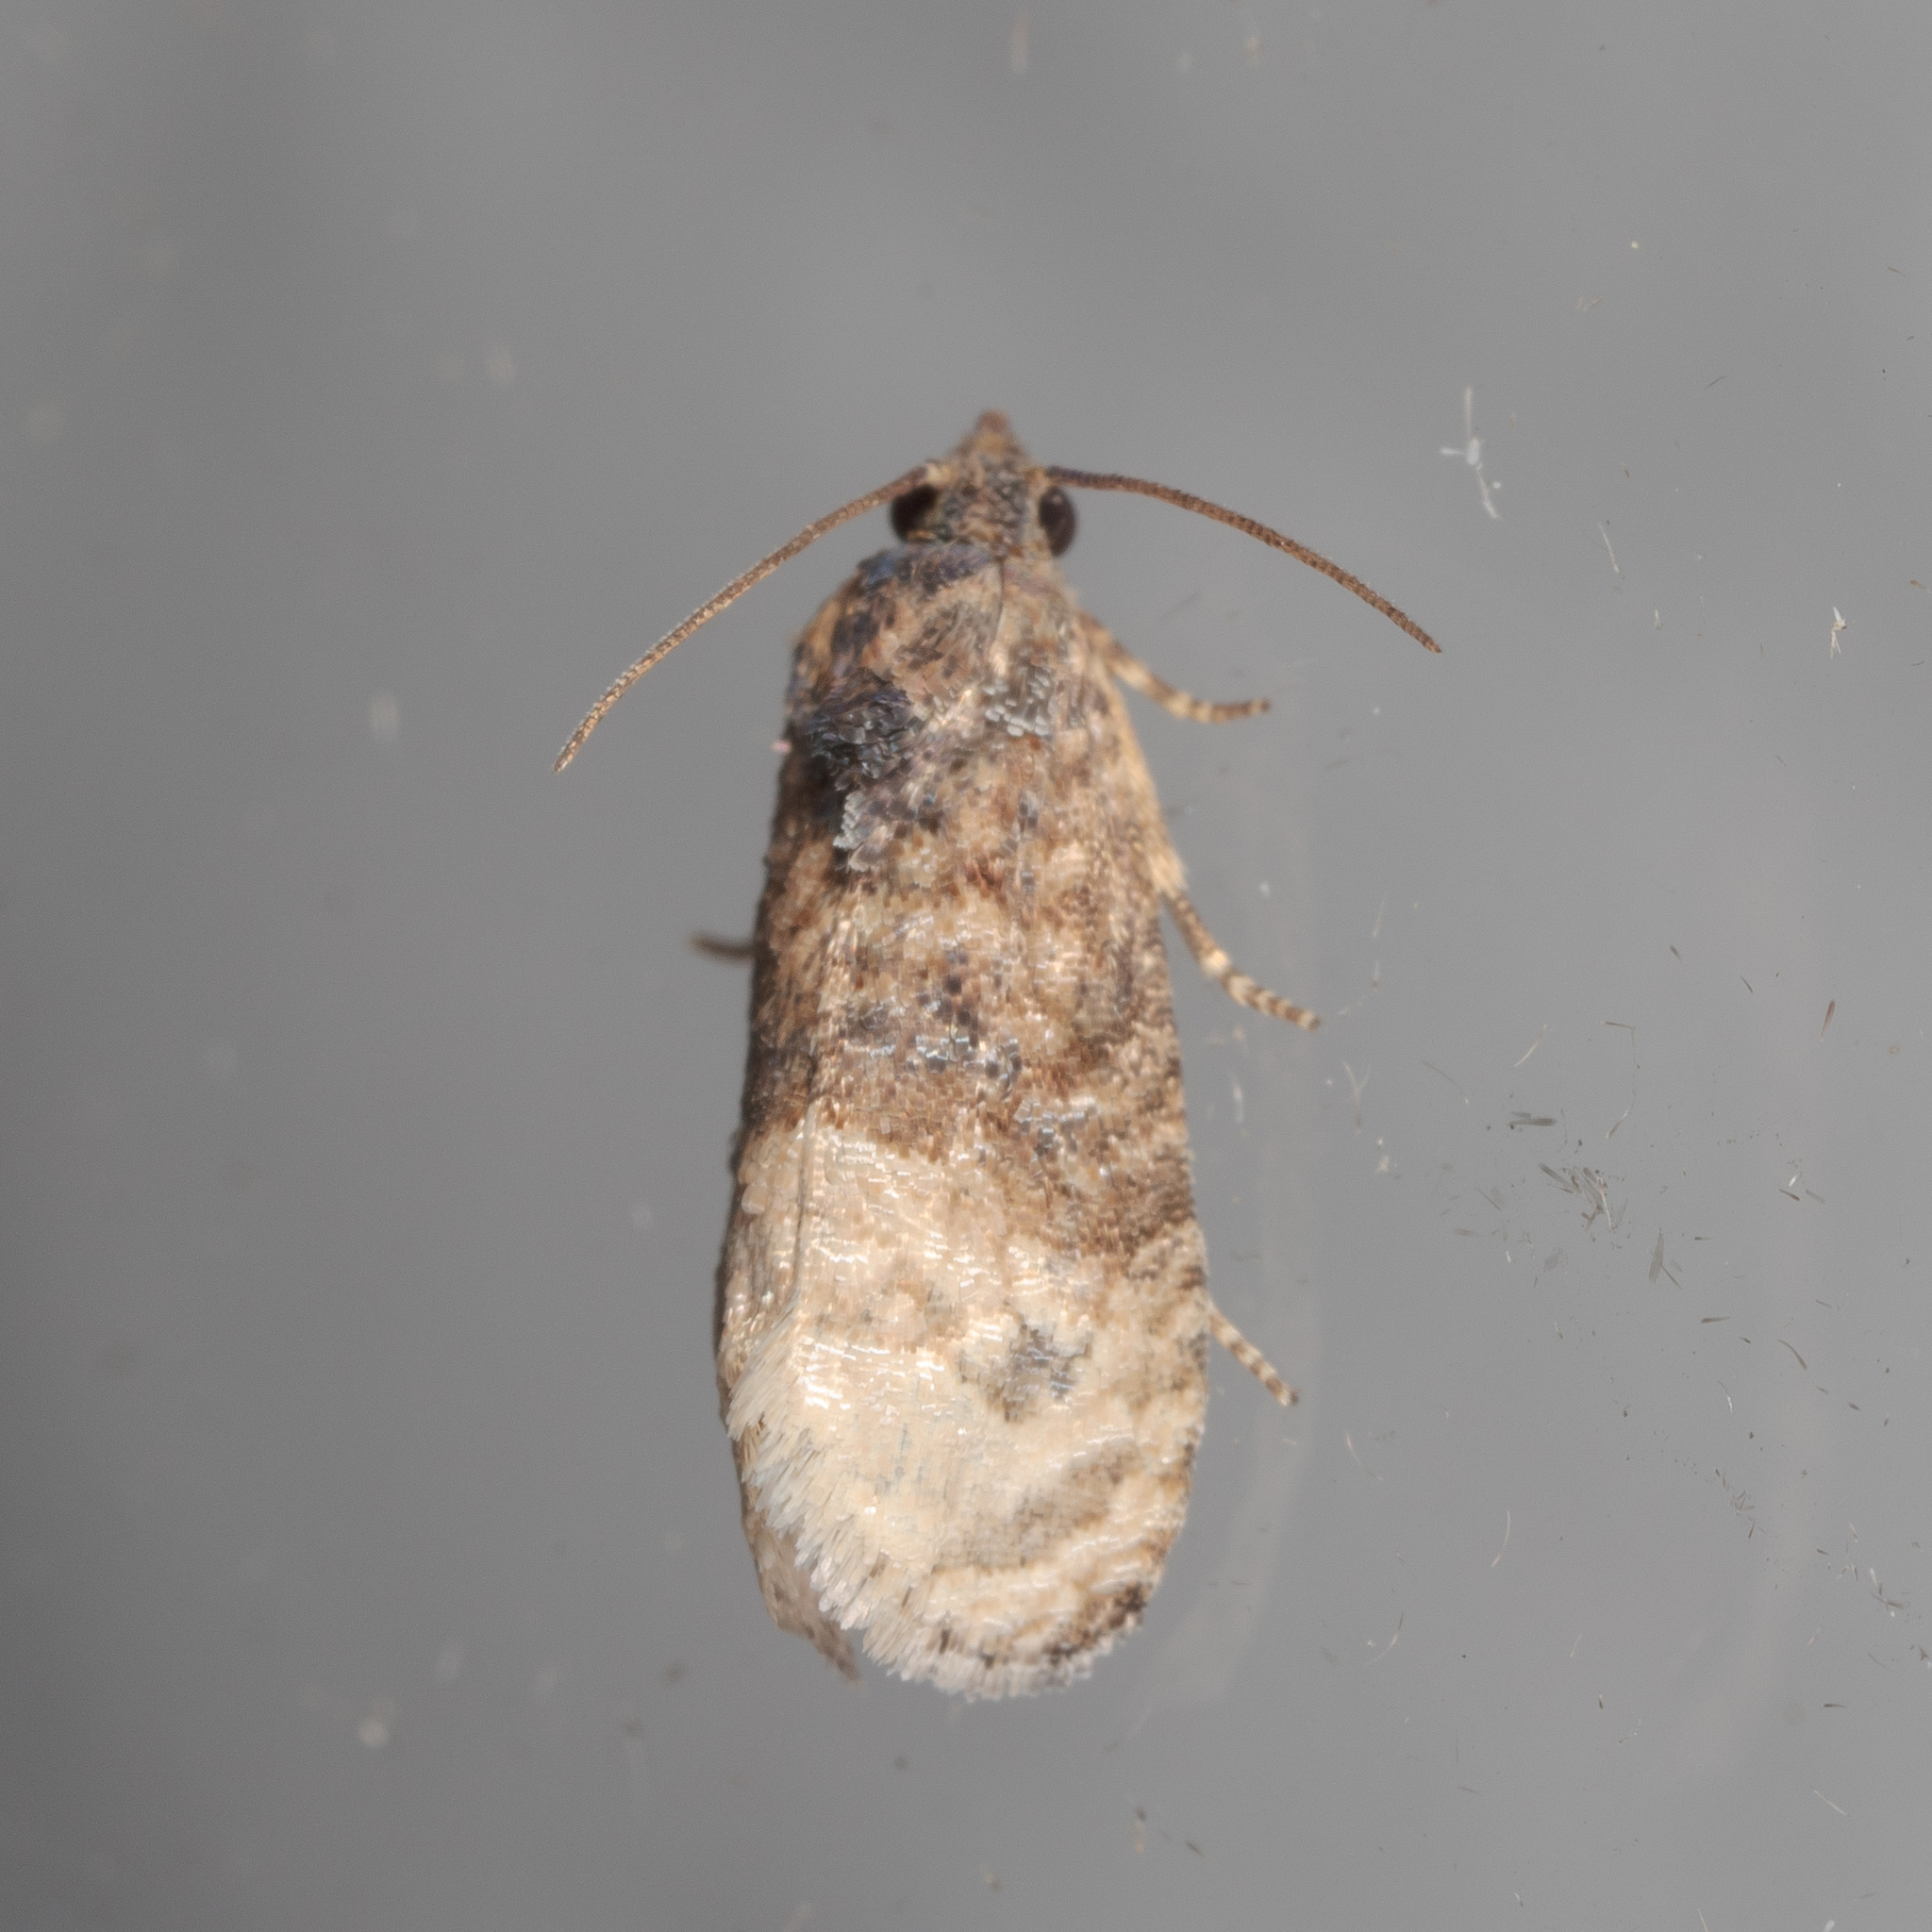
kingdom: Animalia
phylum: Arthropoda
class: Insecta
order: Lepidoptera
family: Tortricidae
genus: Ecdytolopha
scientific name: Ecdytolopha mana
